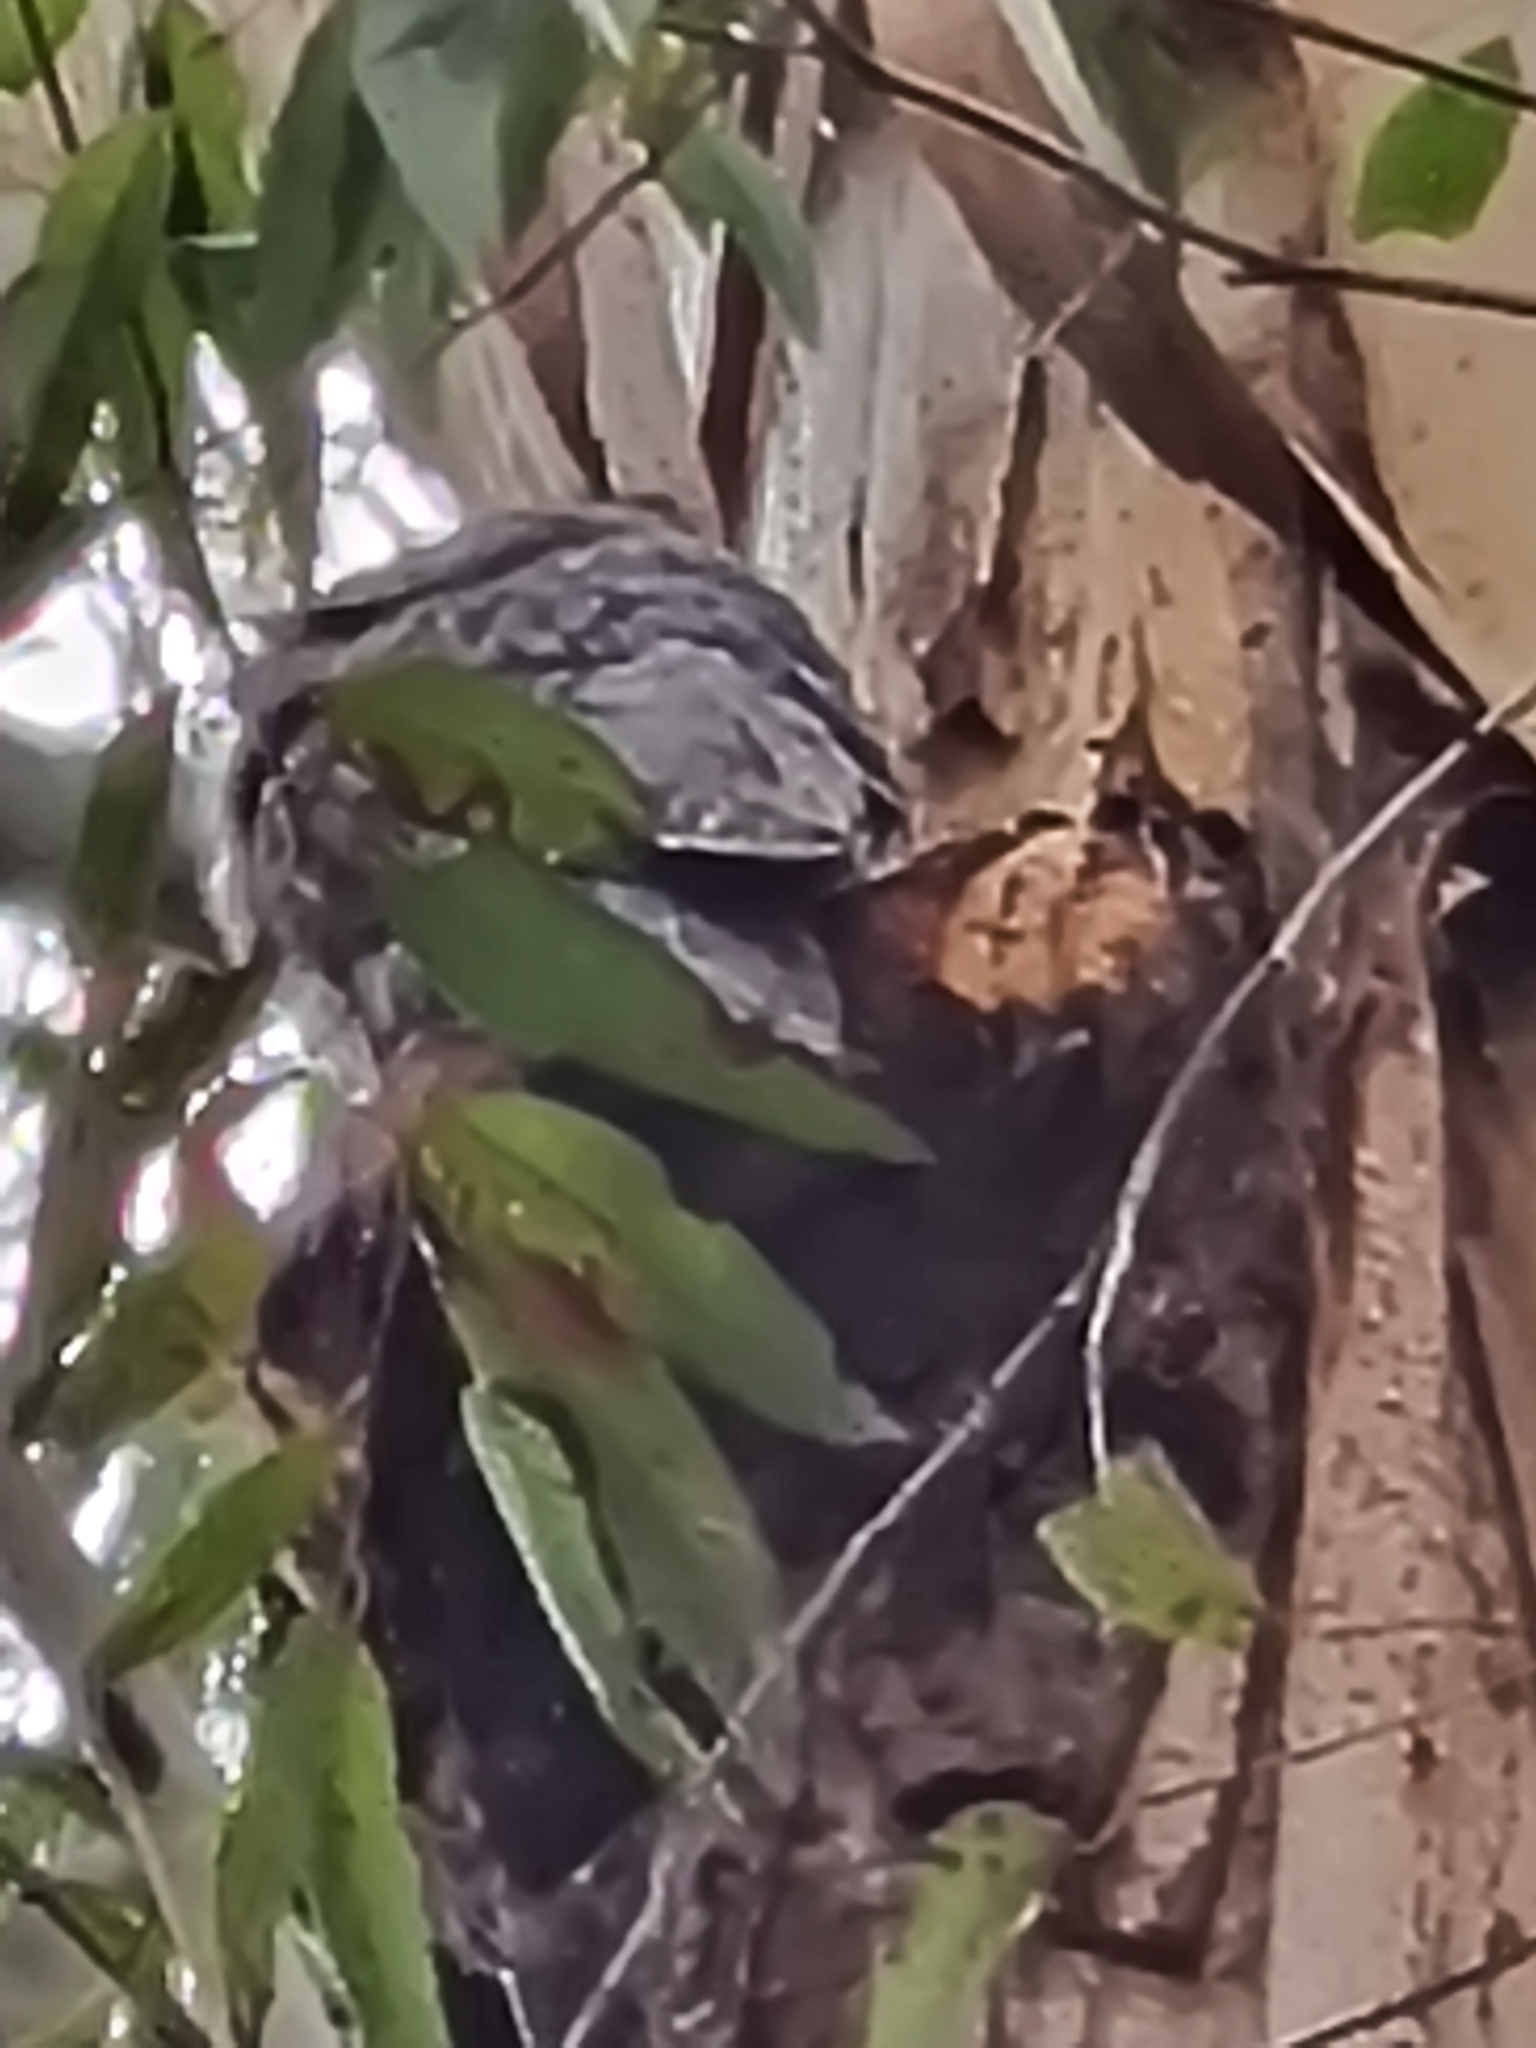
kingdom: Animalia
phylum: Chordata
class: Aves
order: Caprimulgiformes
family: Podargidae
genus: Podargus
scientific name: Podargus strigoides
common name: Tawny frogmouth
